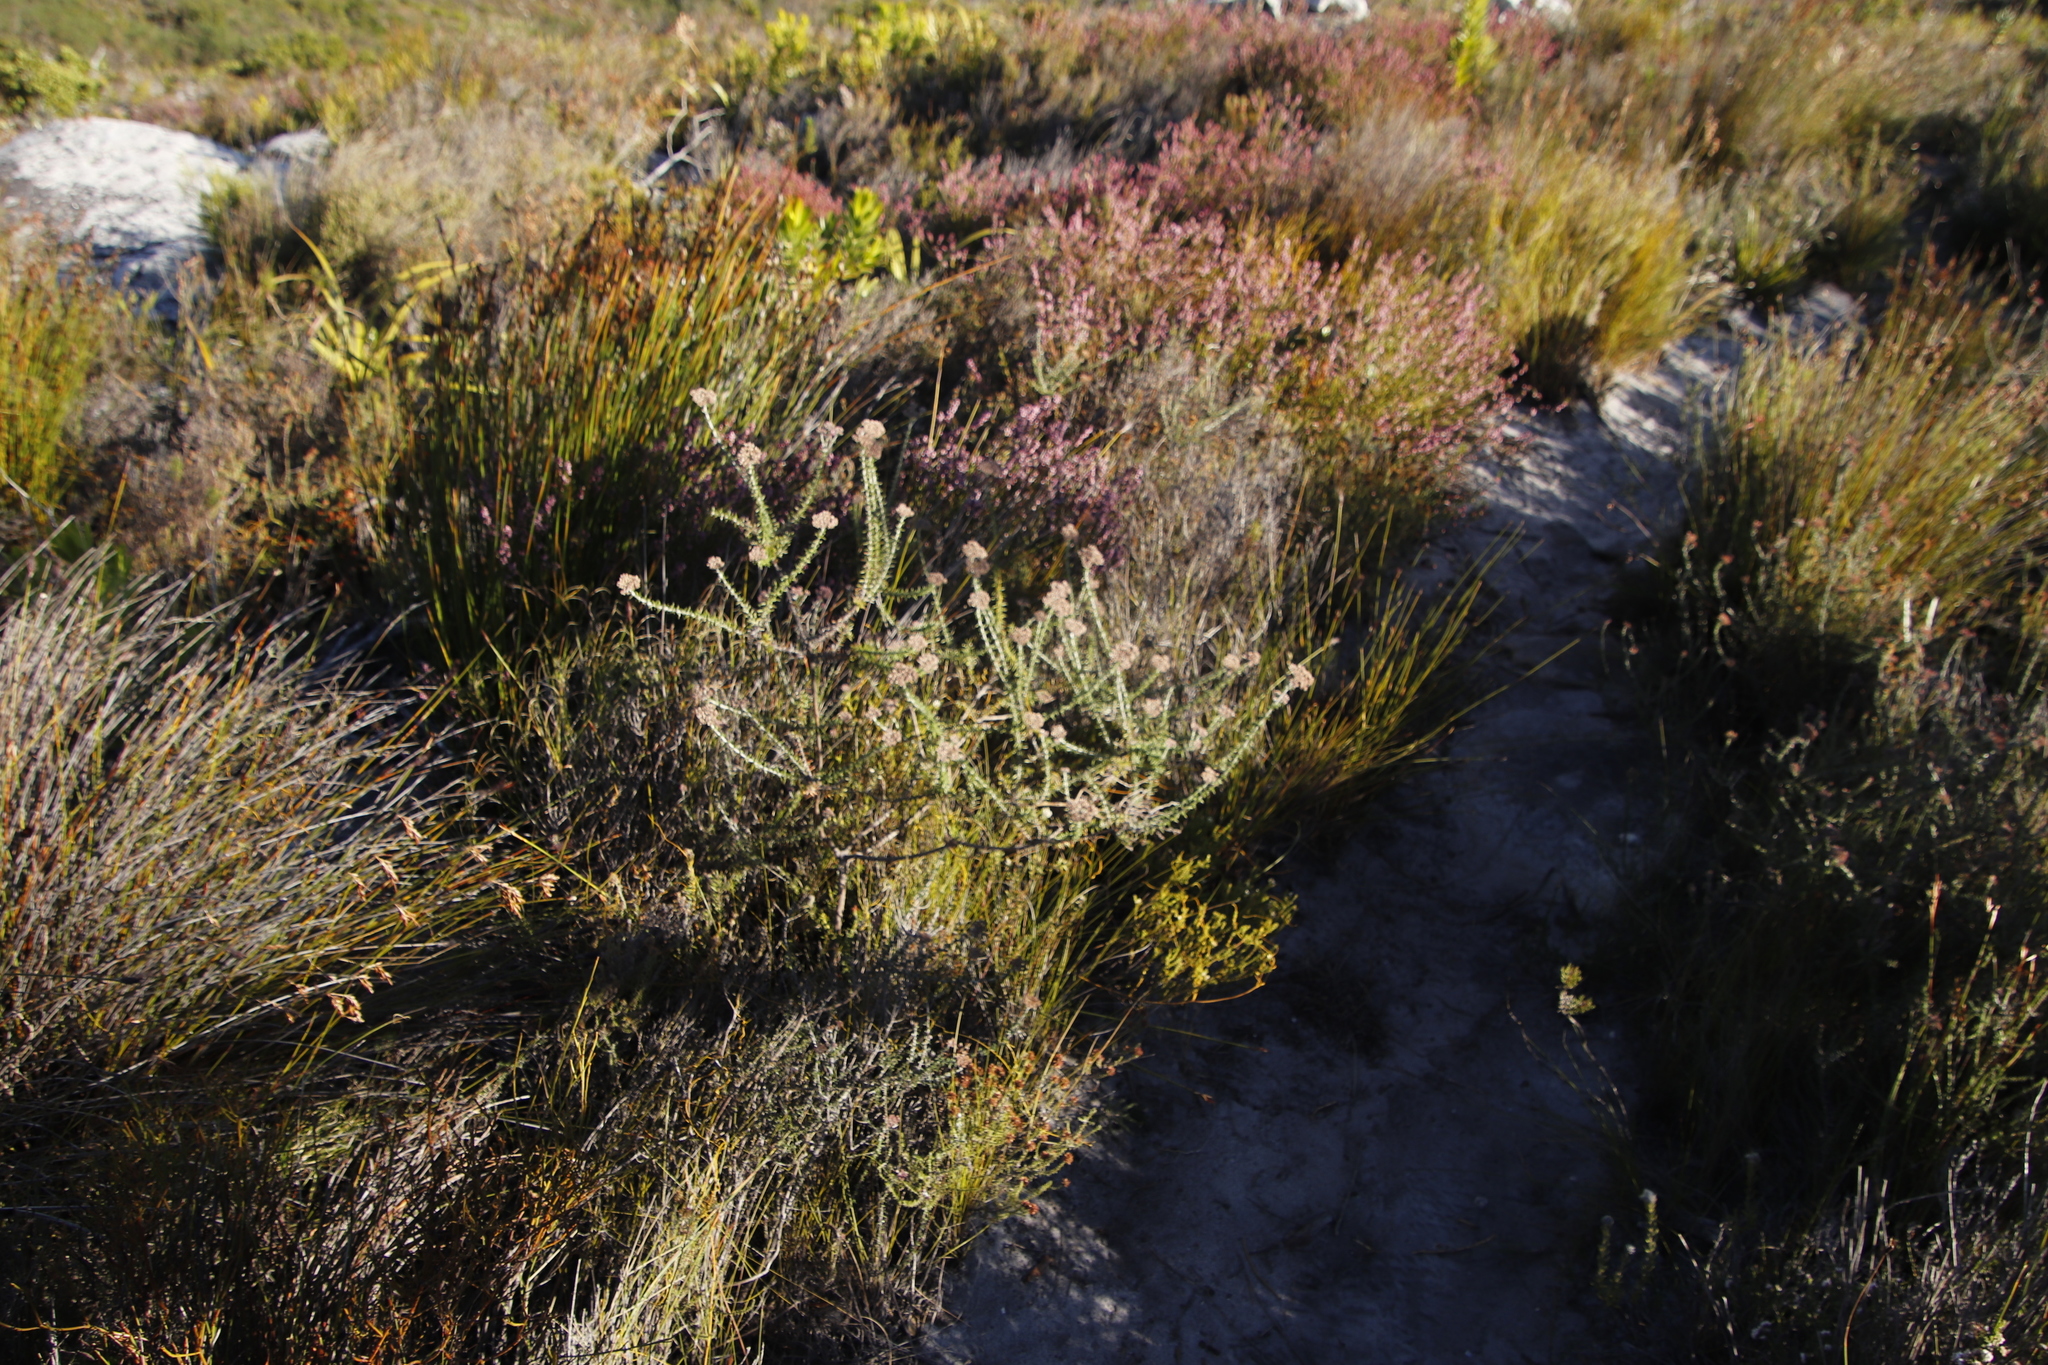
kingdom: Plantae
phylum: Tracheophyta
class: Magnoliopsida
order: Asterales
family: Asteraceae
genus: Metalasia
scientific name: Metalasia densa
